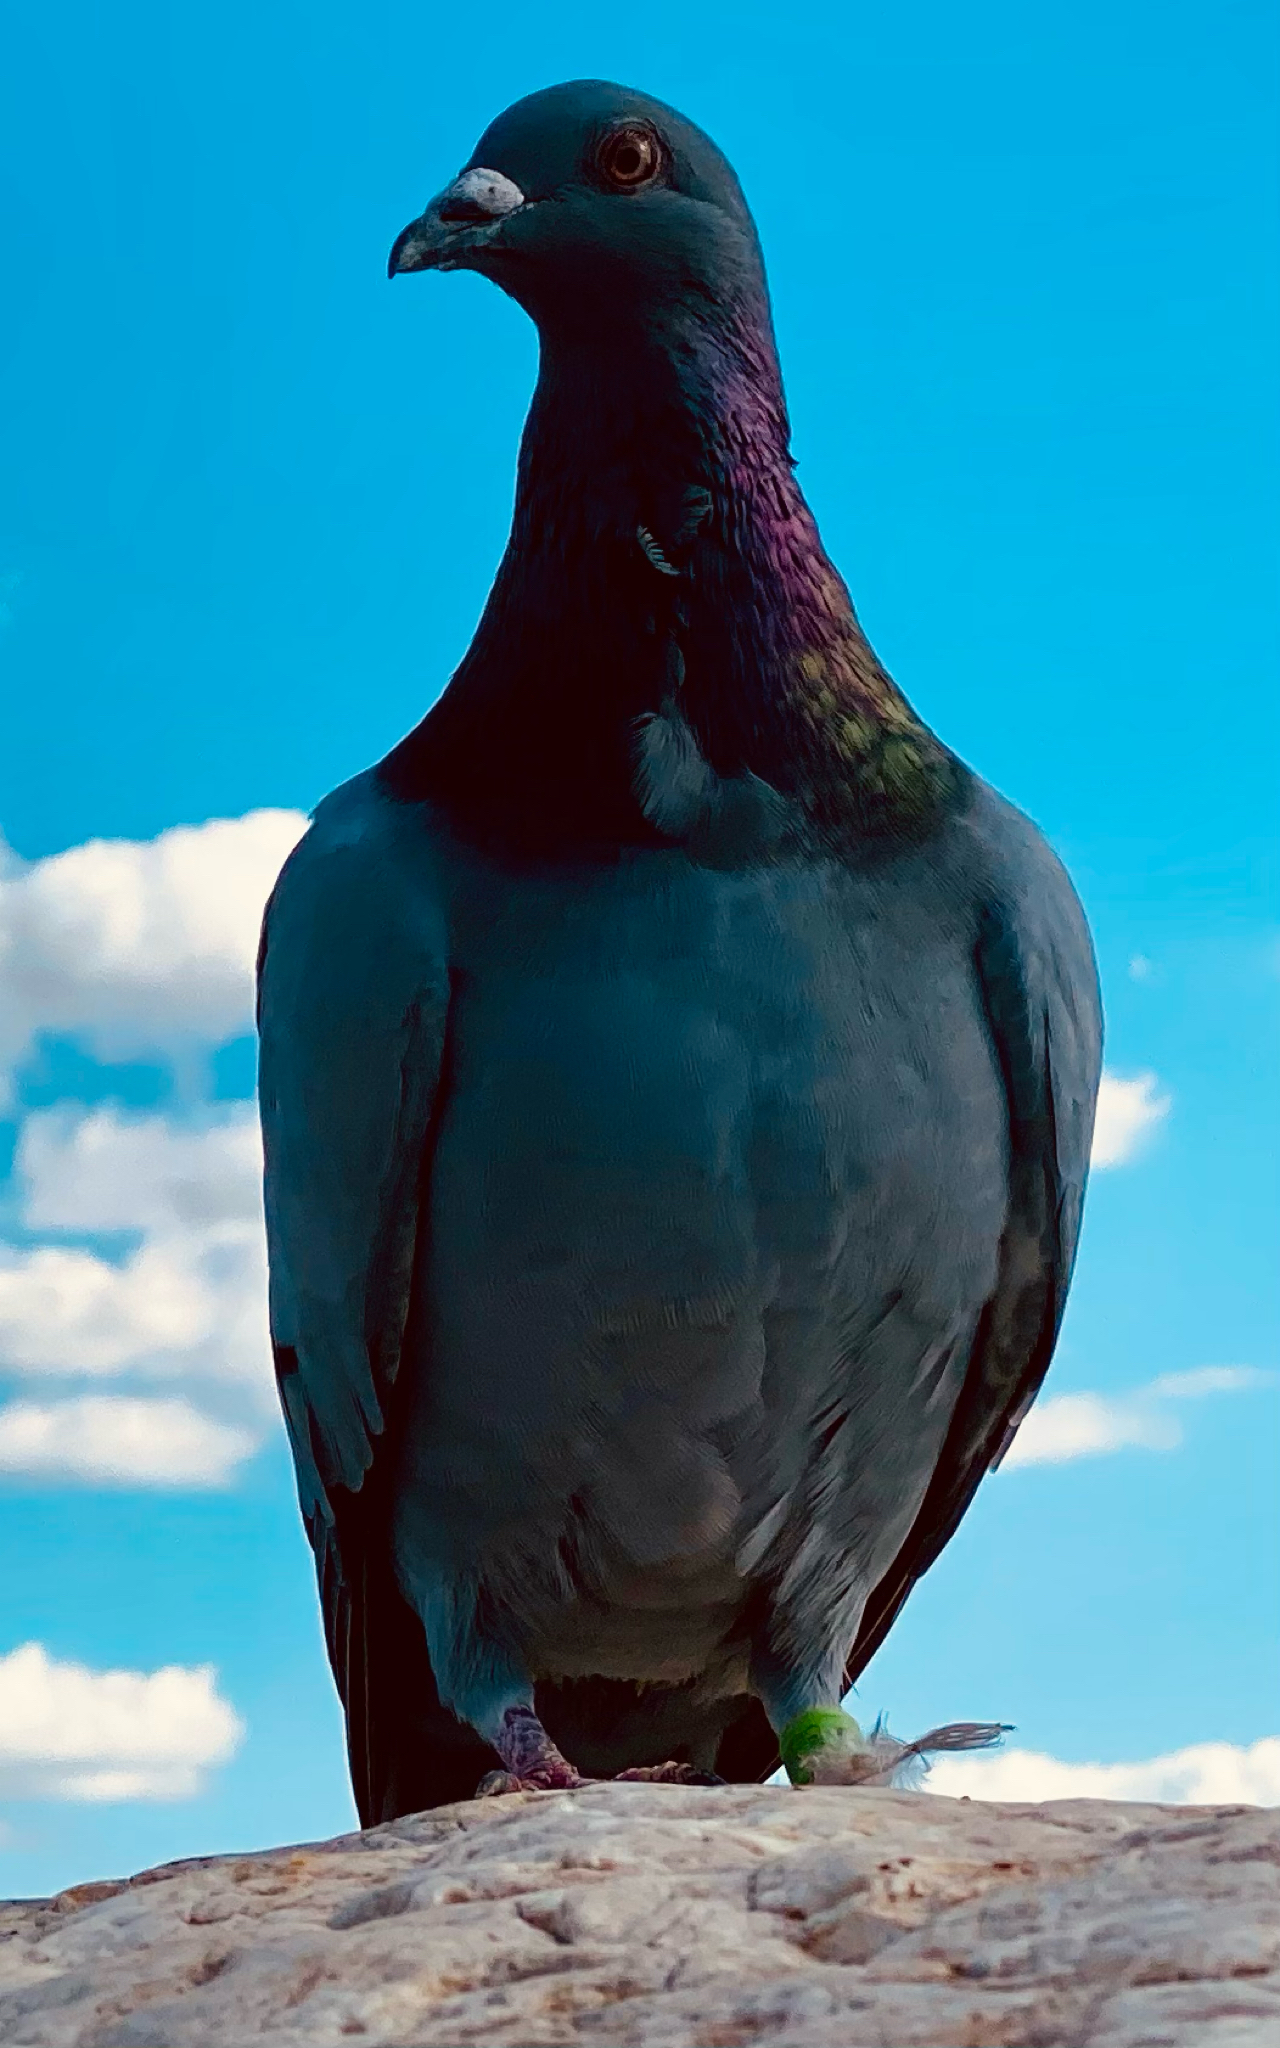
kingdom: Animalia
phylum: Chordata
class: Aves
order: Columbiformes
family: Columbidae
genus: Columba
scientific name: Columba livia
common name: Rock pigeon
